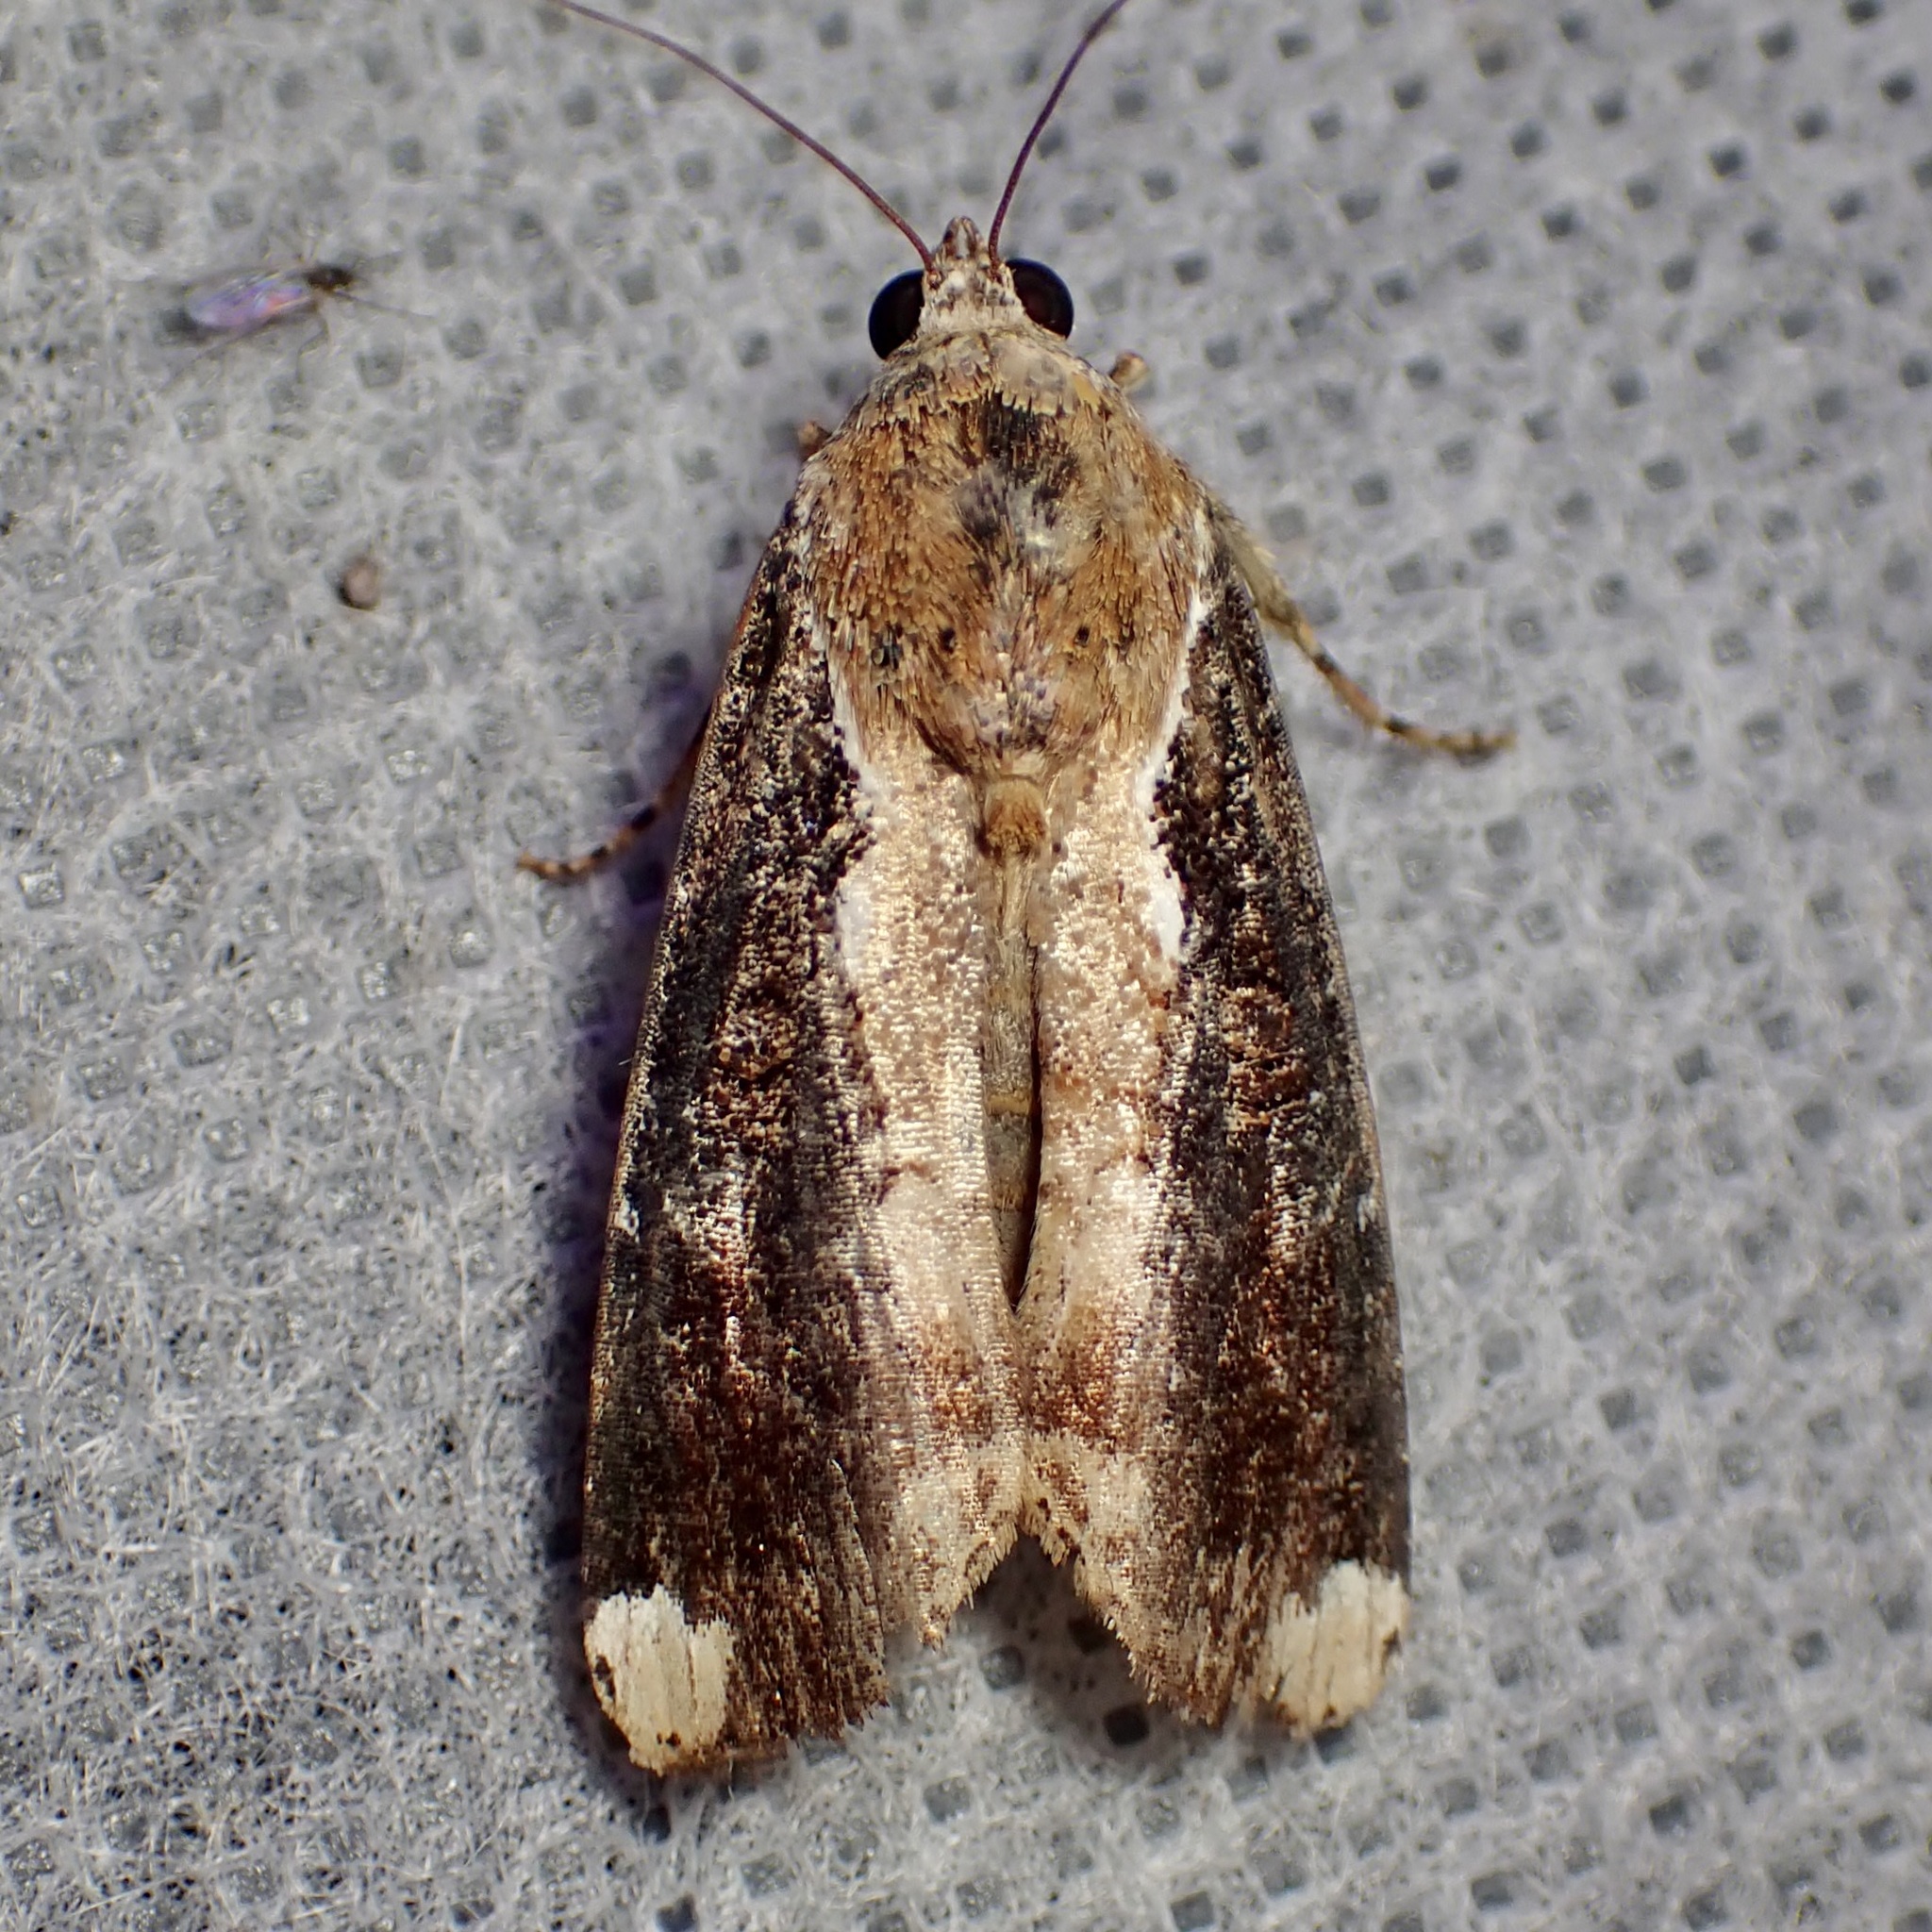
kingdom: Animalia
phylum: Arthropoda
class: Insecta
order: Lepidoptera
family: Noctuidae
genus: Magusa
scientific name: Magusa divaricata
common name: Orb narrow-winged moth
